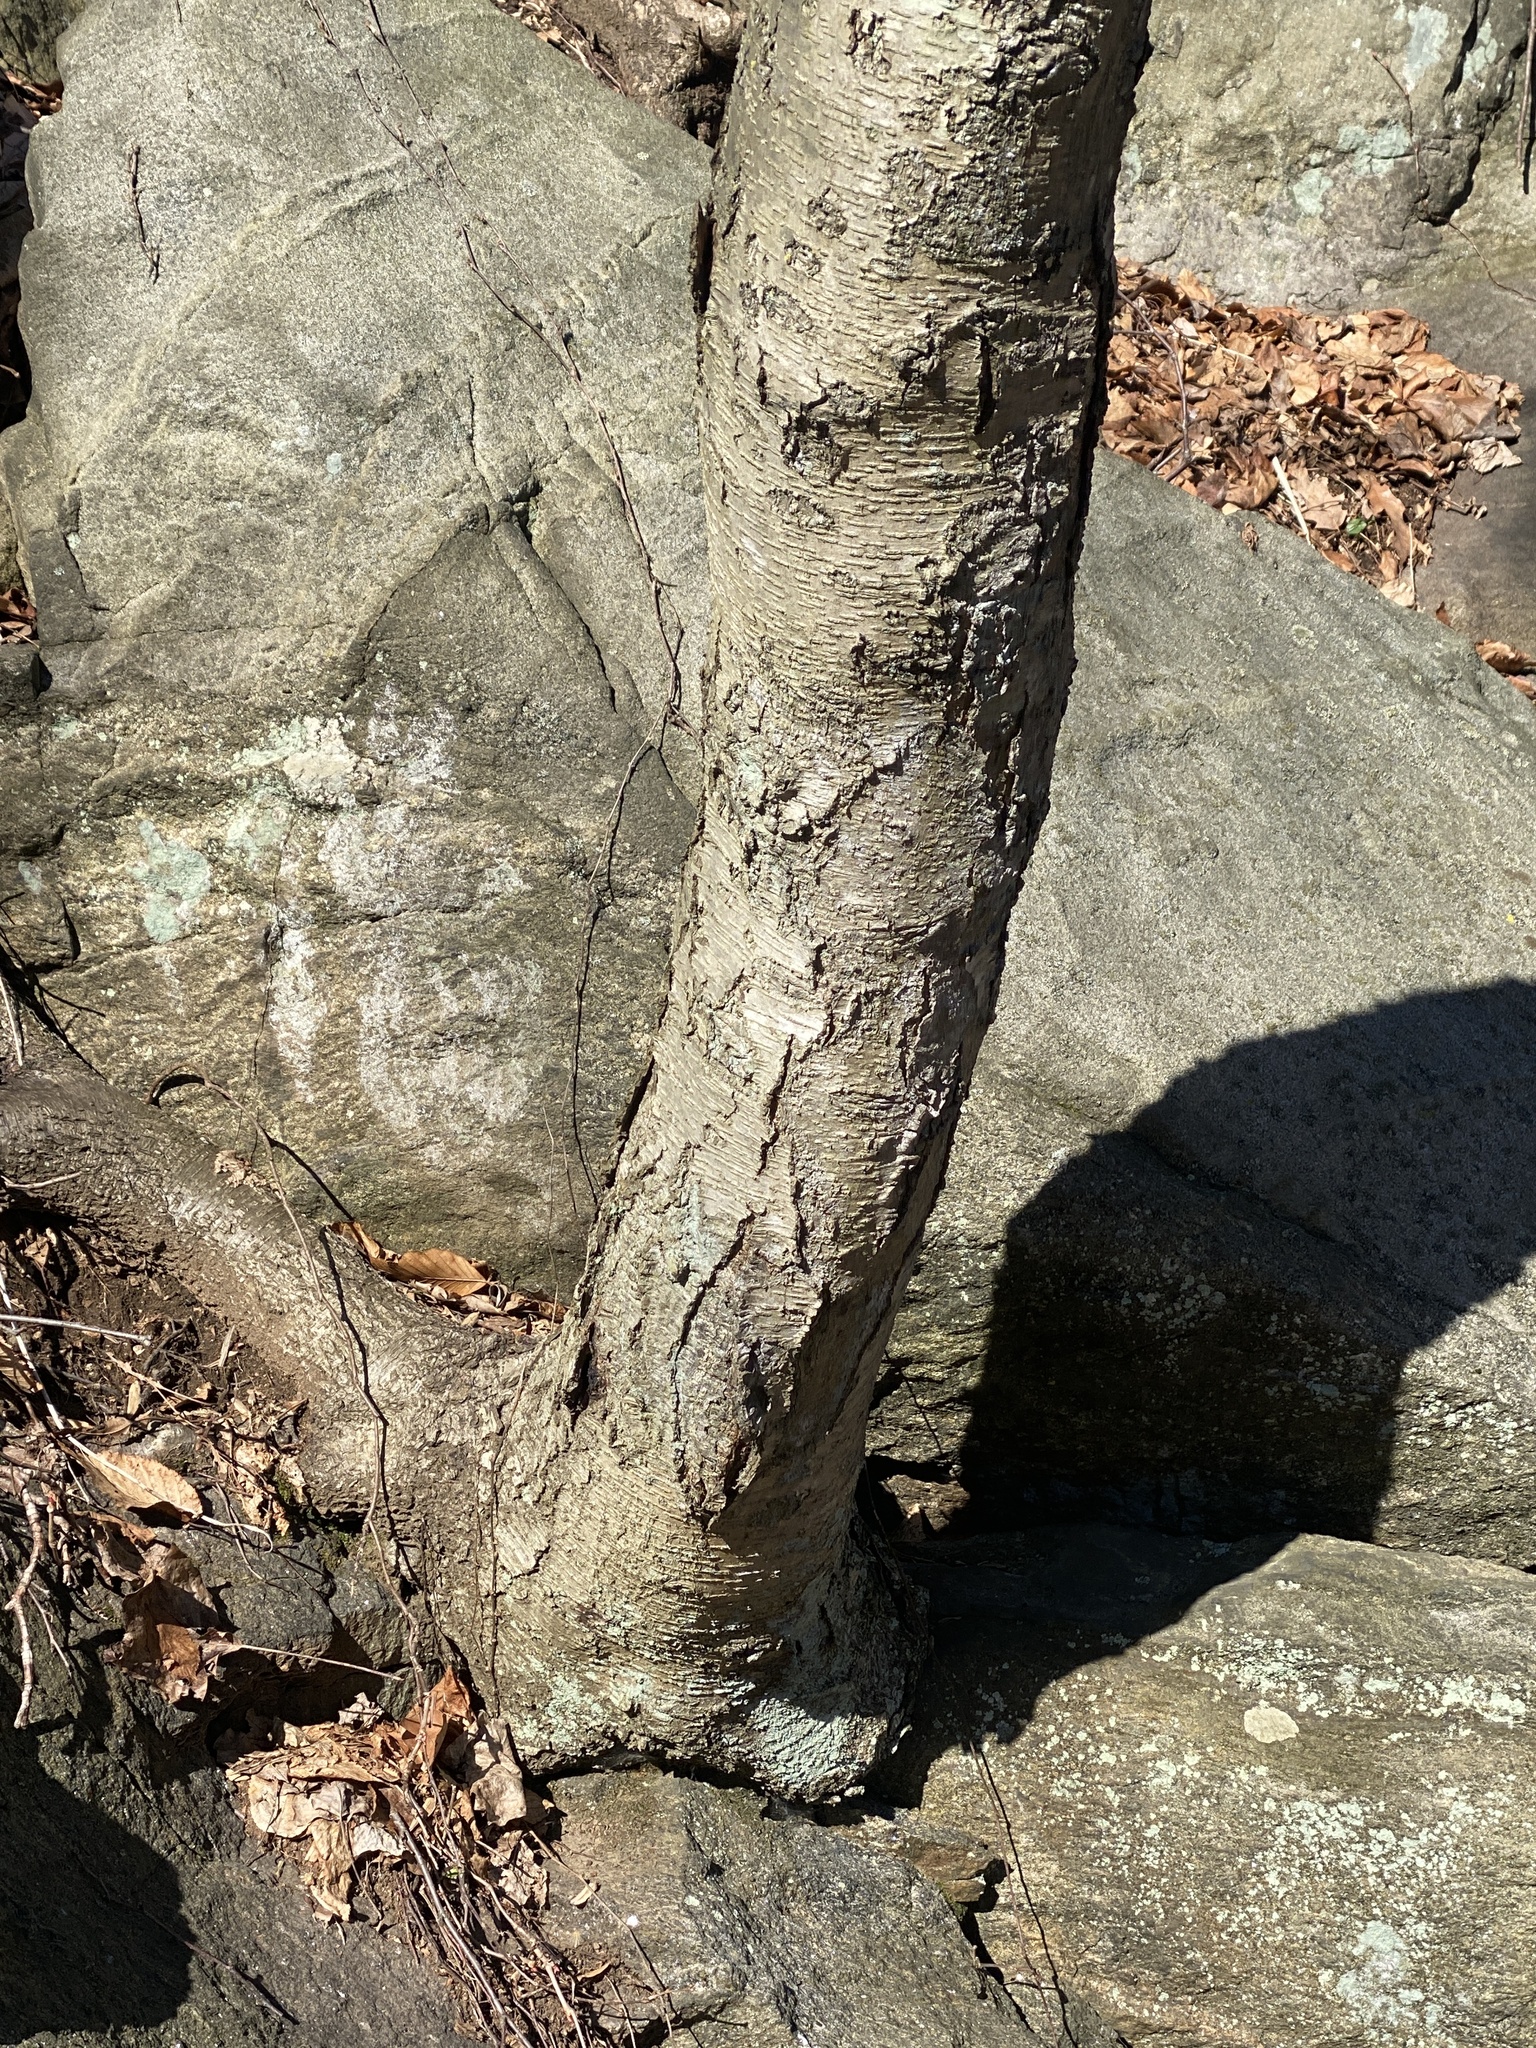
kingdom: Plantae
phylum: Tracheophyta
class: Magnoliopsida
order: Fagales
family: Betulaceae
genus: Betula
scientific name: Betula lenta
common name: Black birch
